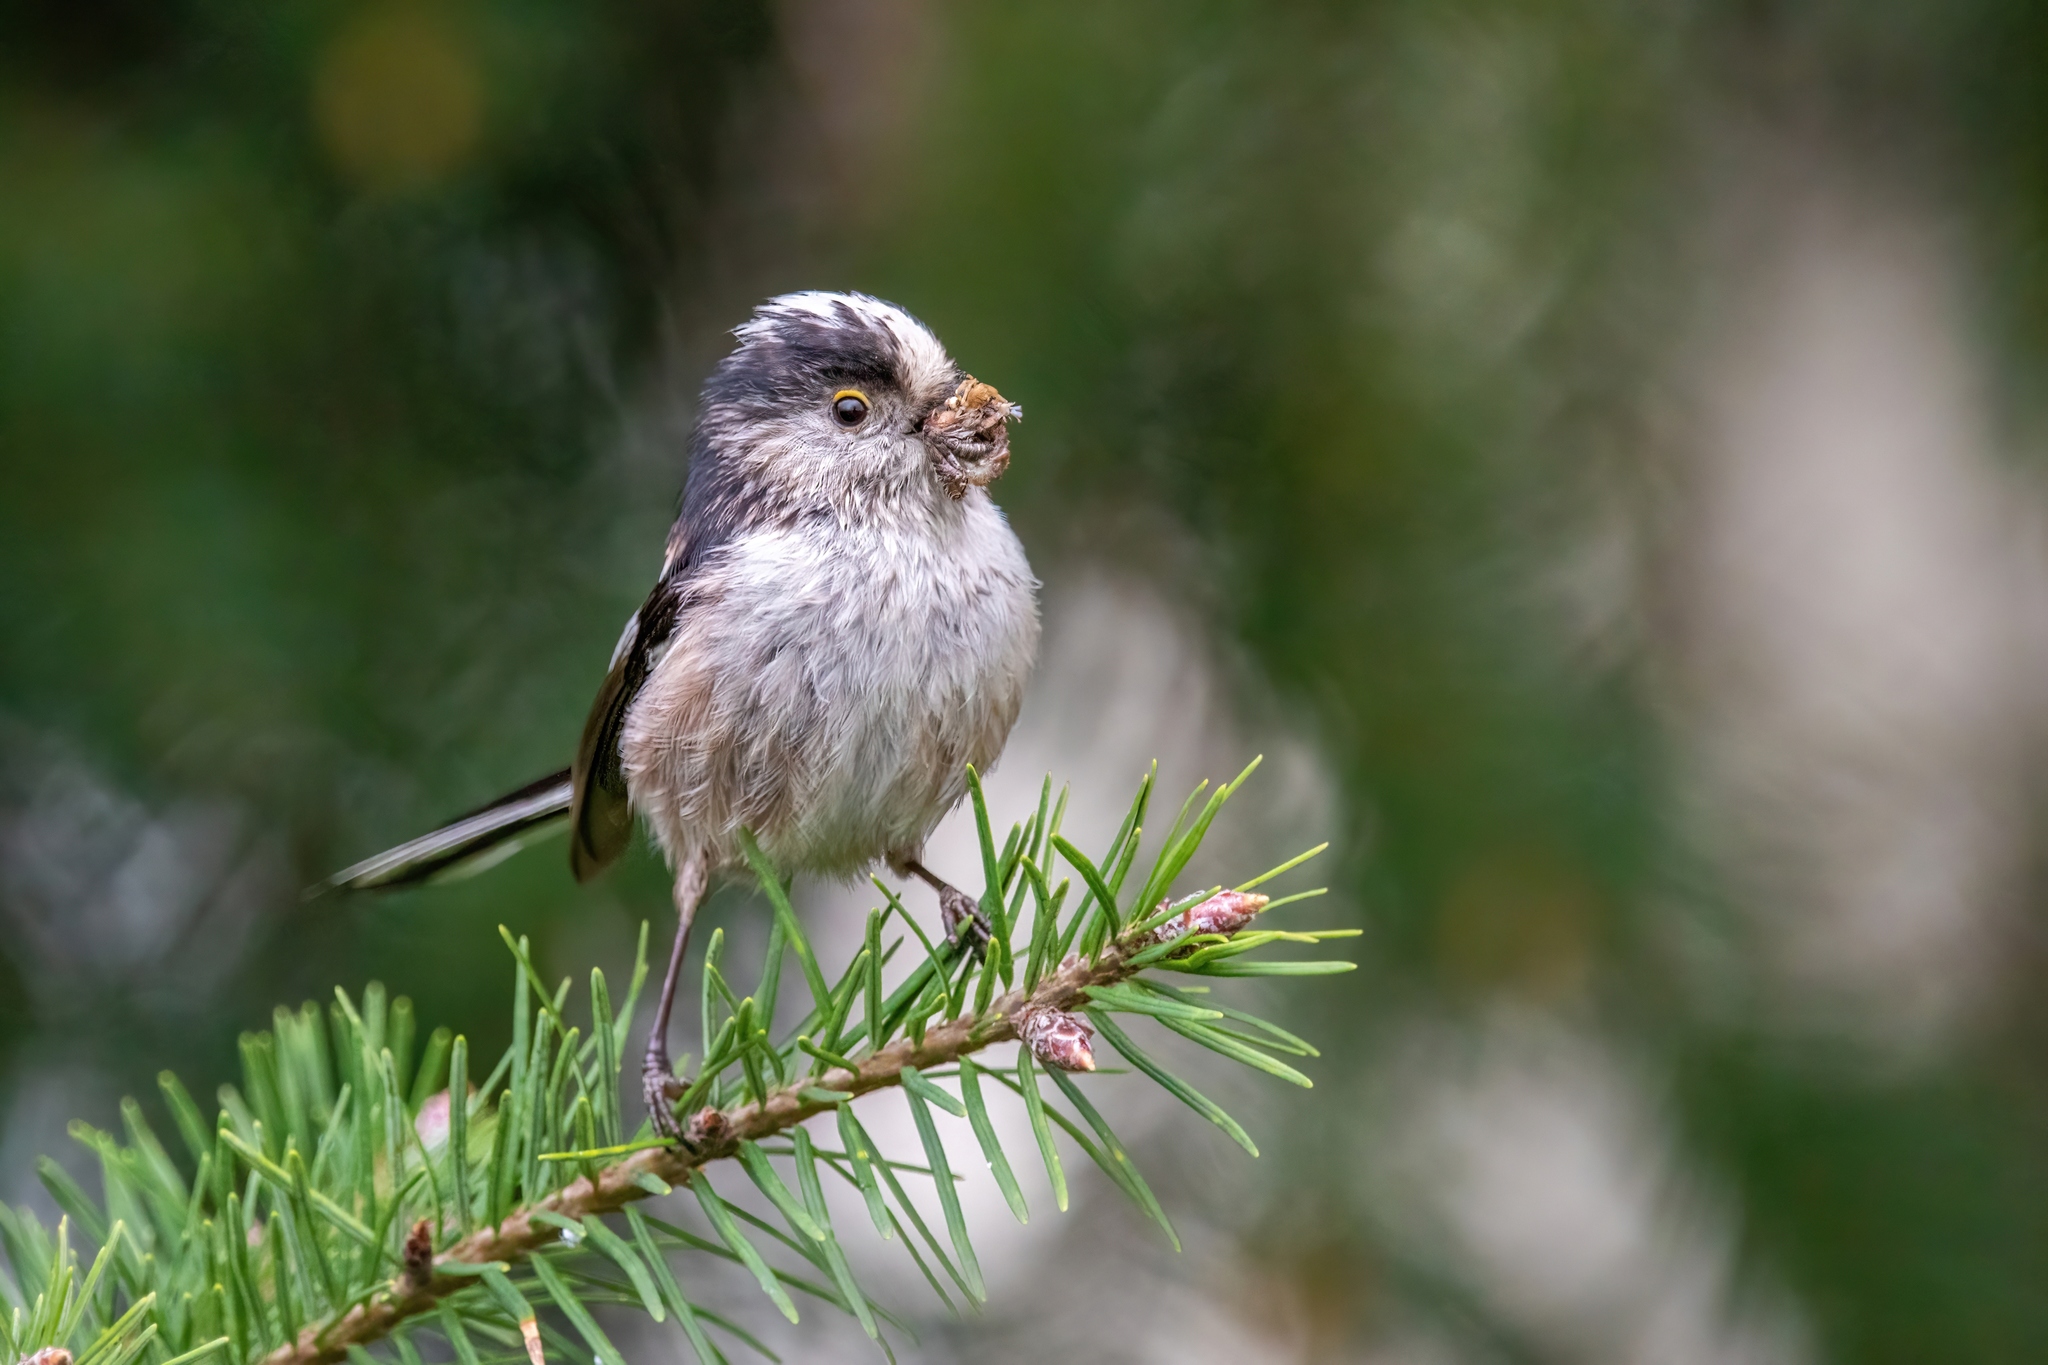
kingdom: Animalia
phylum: Chordata
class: Aves
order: Passeriformes
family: Aegithalidae
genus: Aegithalos
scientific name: Aegithalos caudatus
